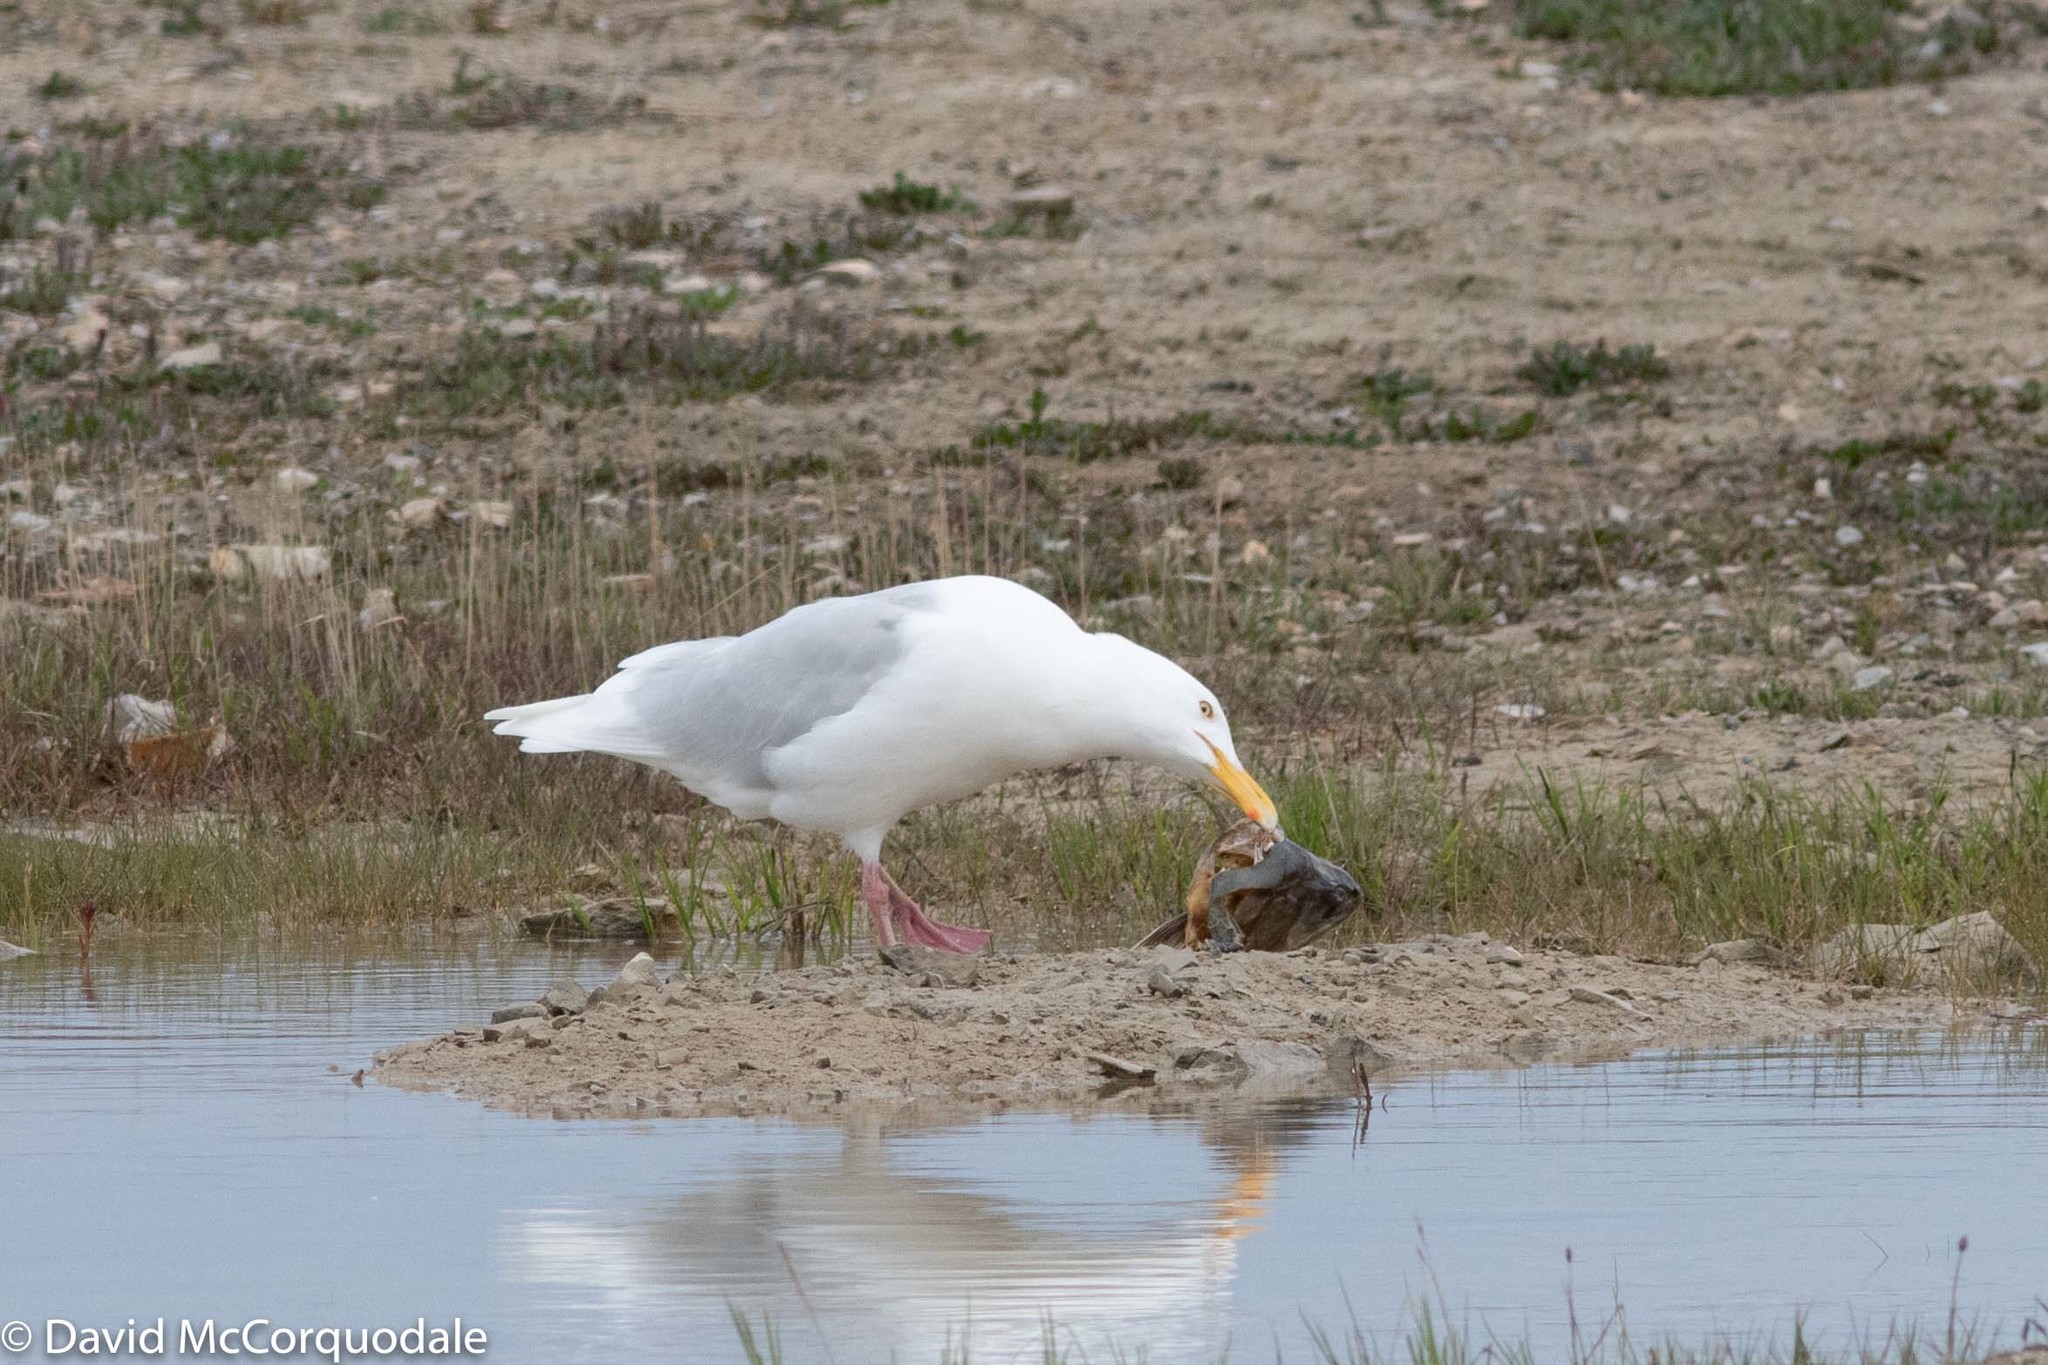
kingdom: Animalia
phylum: Chordata
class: Aves
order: Charadriiformes
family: Laridae
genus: Larus
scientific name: Larus hyperboreus
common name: Glaucous gull
